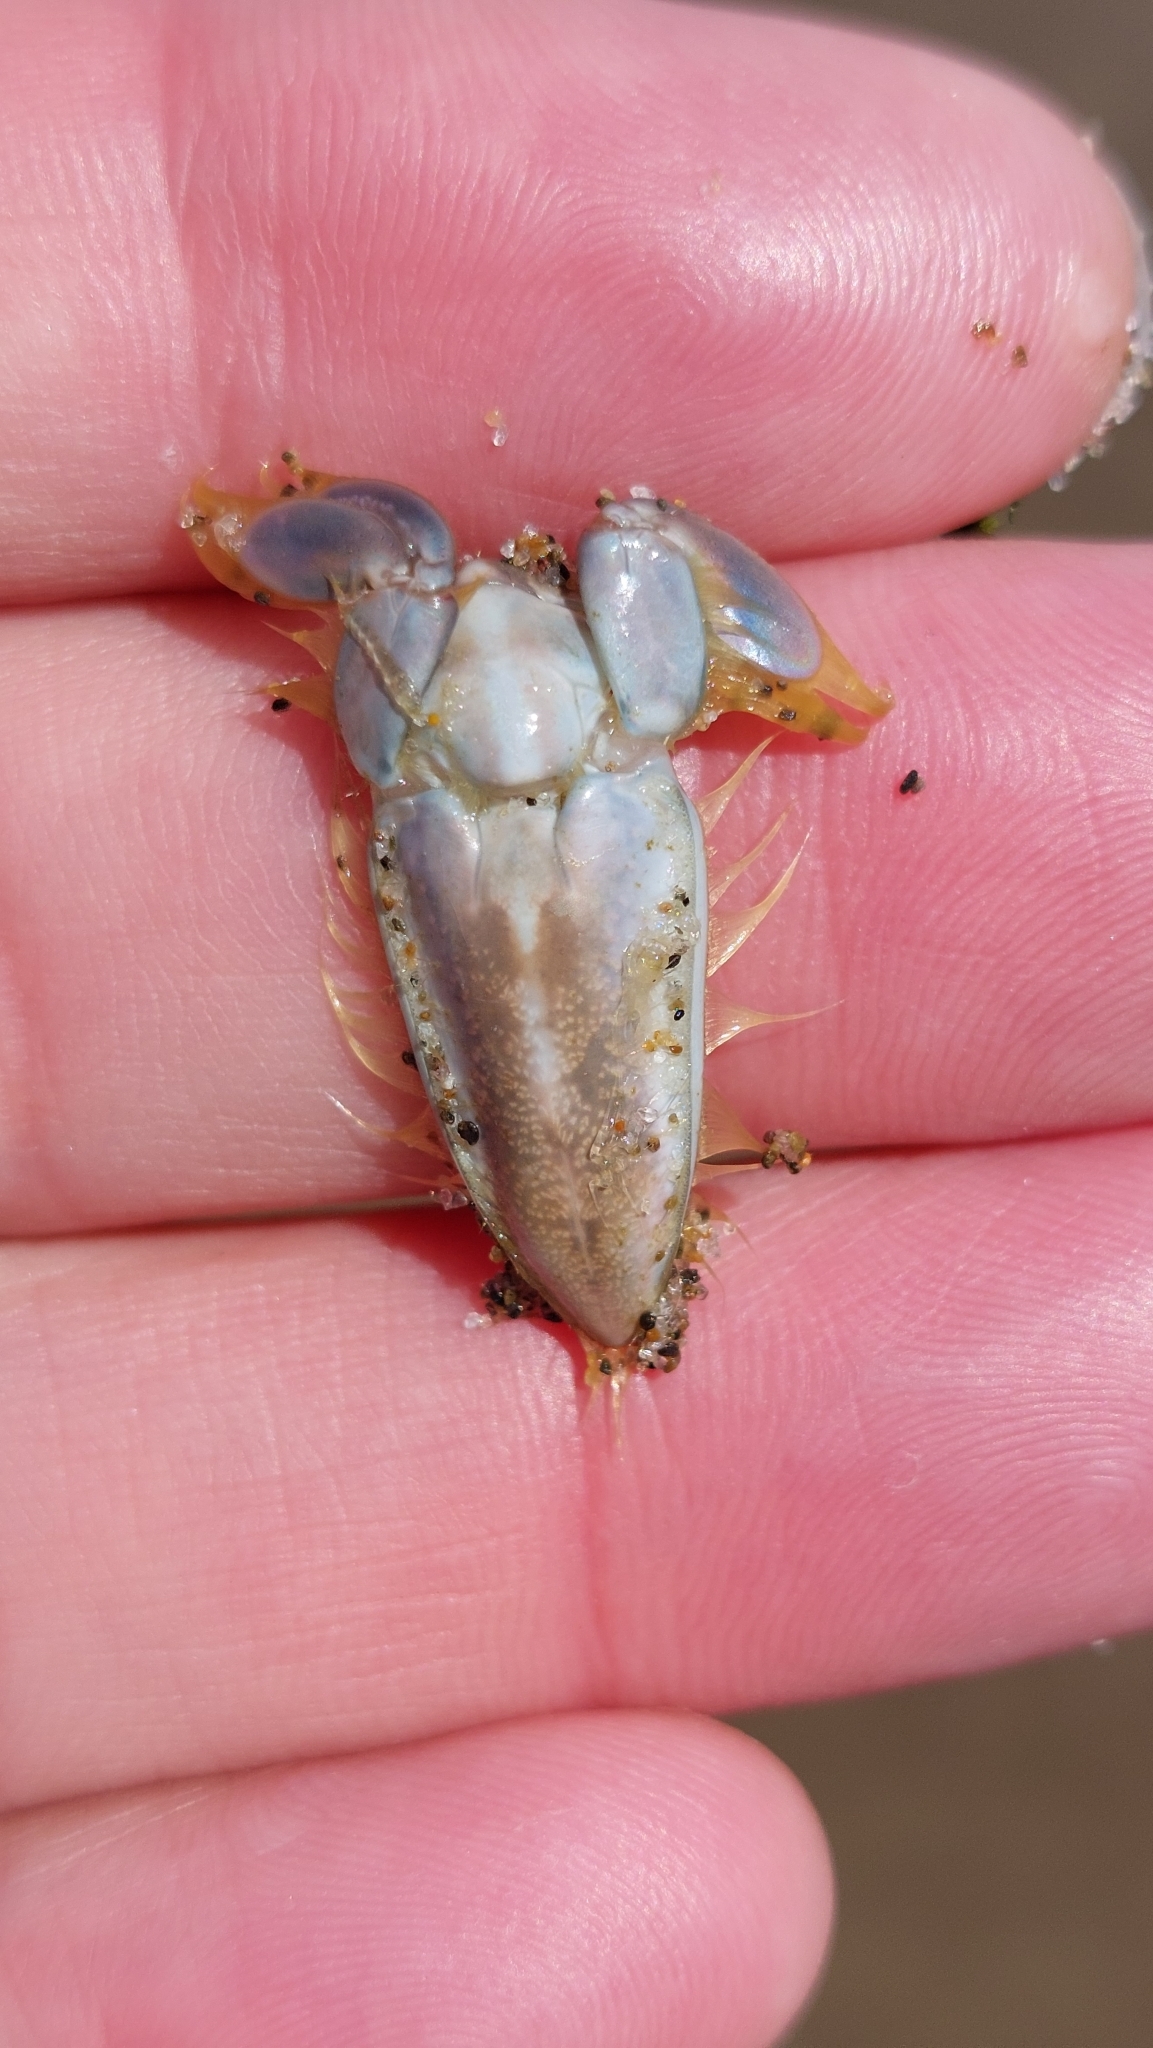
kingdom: Animalia
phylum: Arthropoda
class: Malacostraca
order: Decapoda
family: Hippidae
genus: Emerita
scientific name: Emerita analoga
